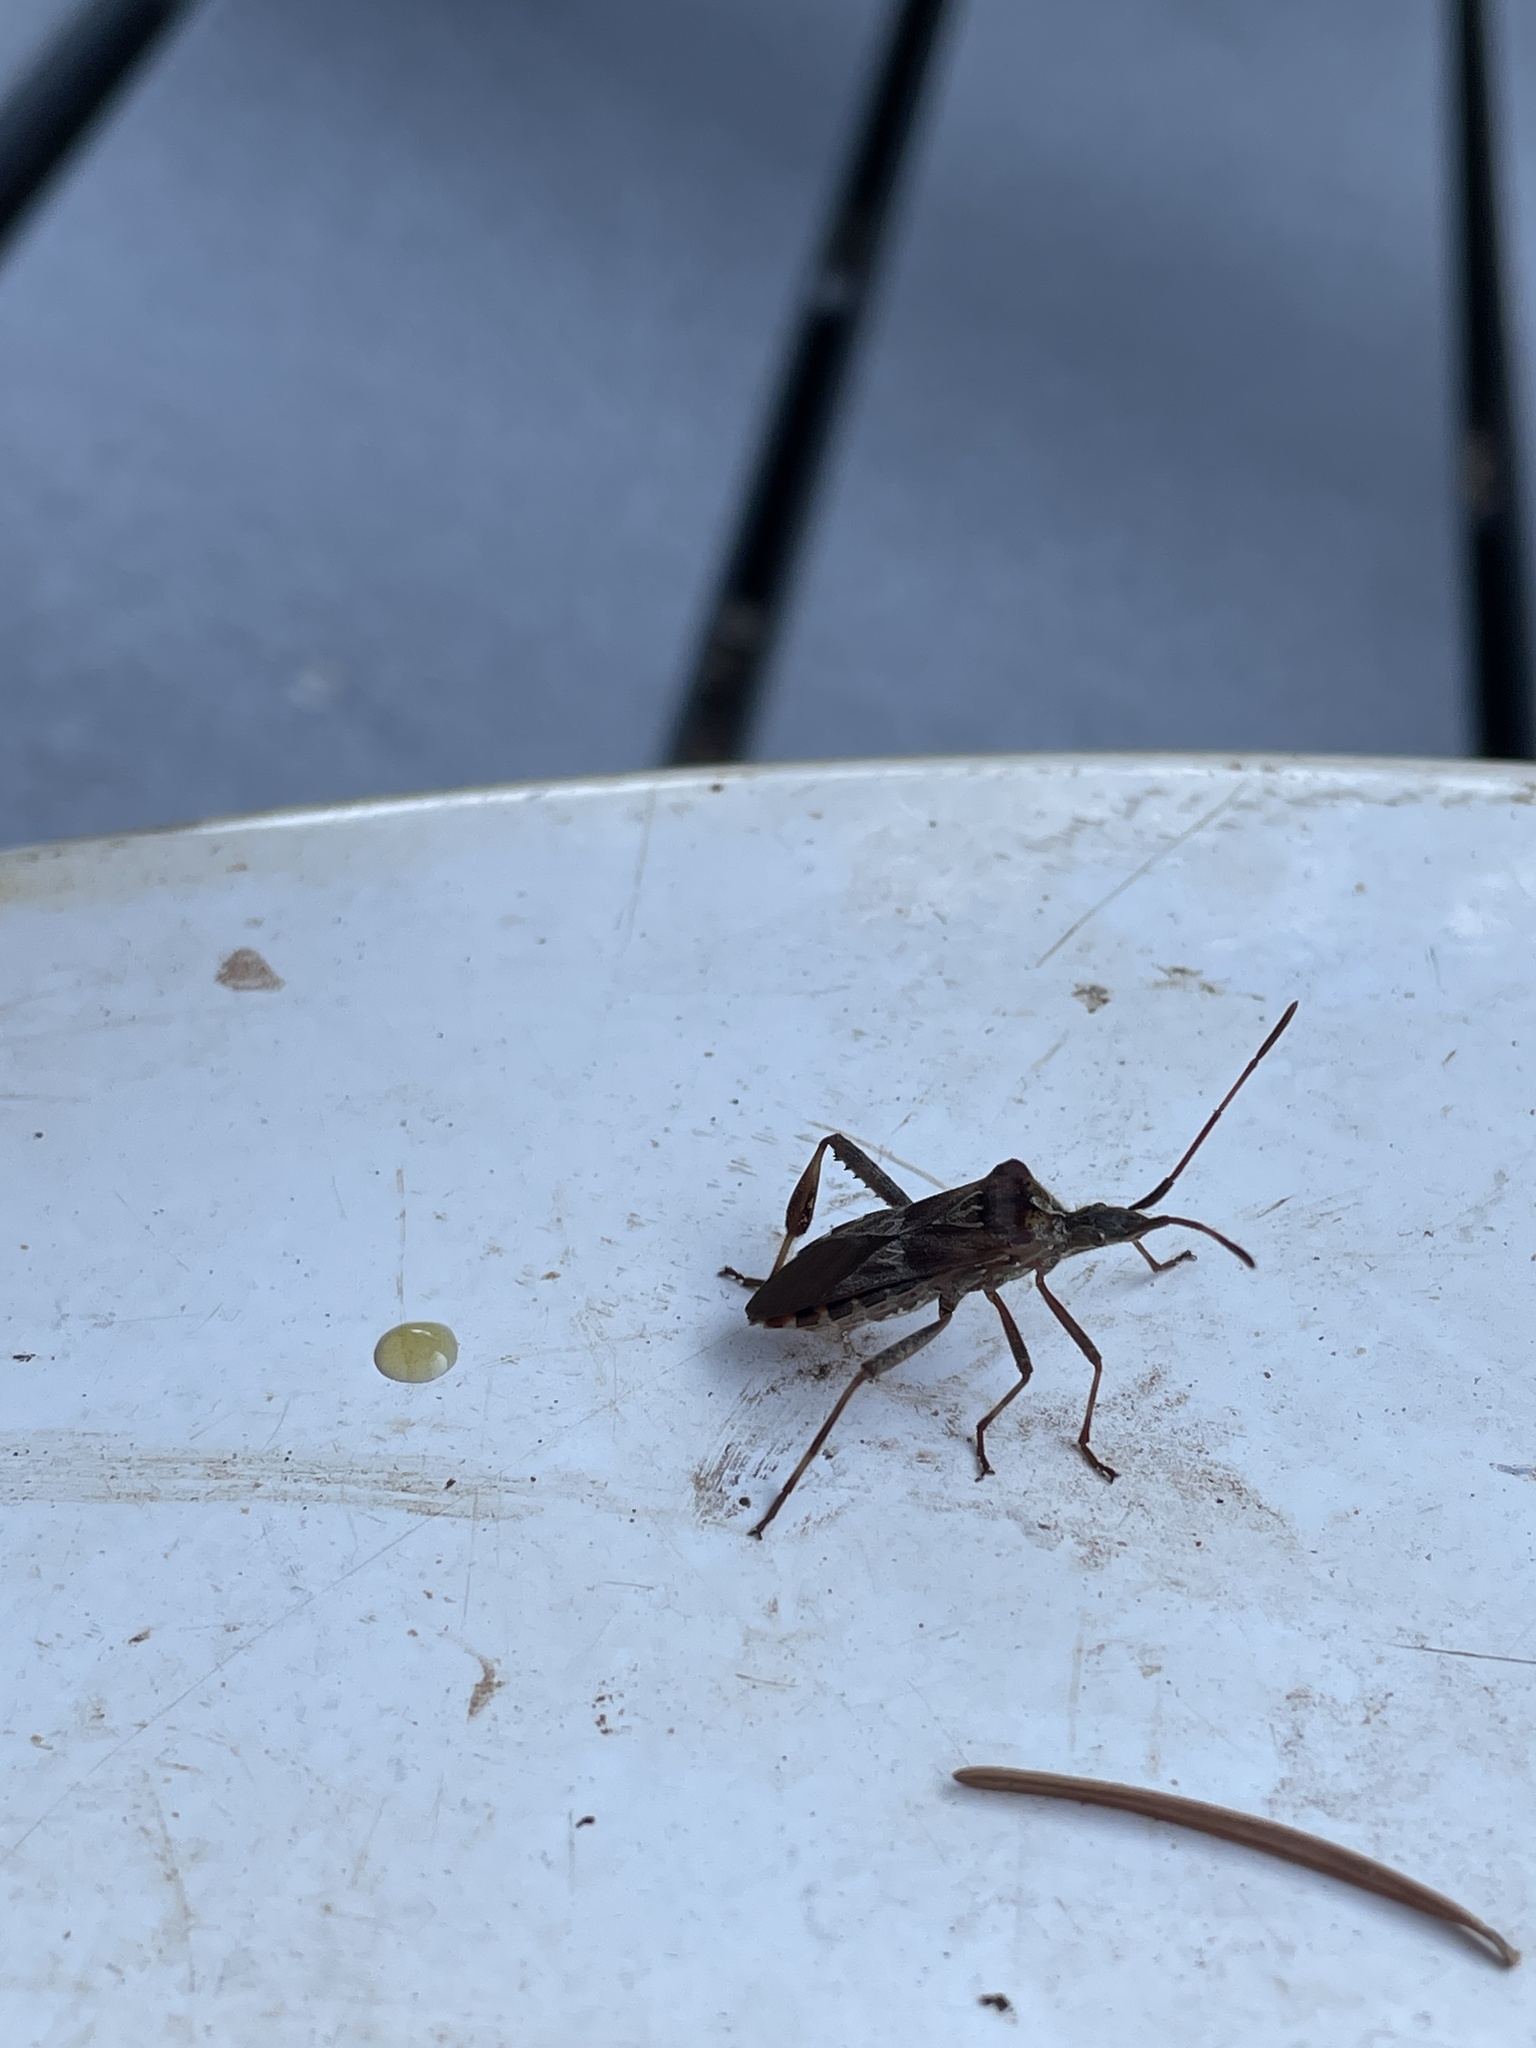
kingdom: Animalia
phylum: Arthropoda
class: Insecta
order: Hemiptera
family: Coreidae
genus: Leptoglossus
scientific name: Leptoglossus occidentalis
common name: Western conifer-seed bug
